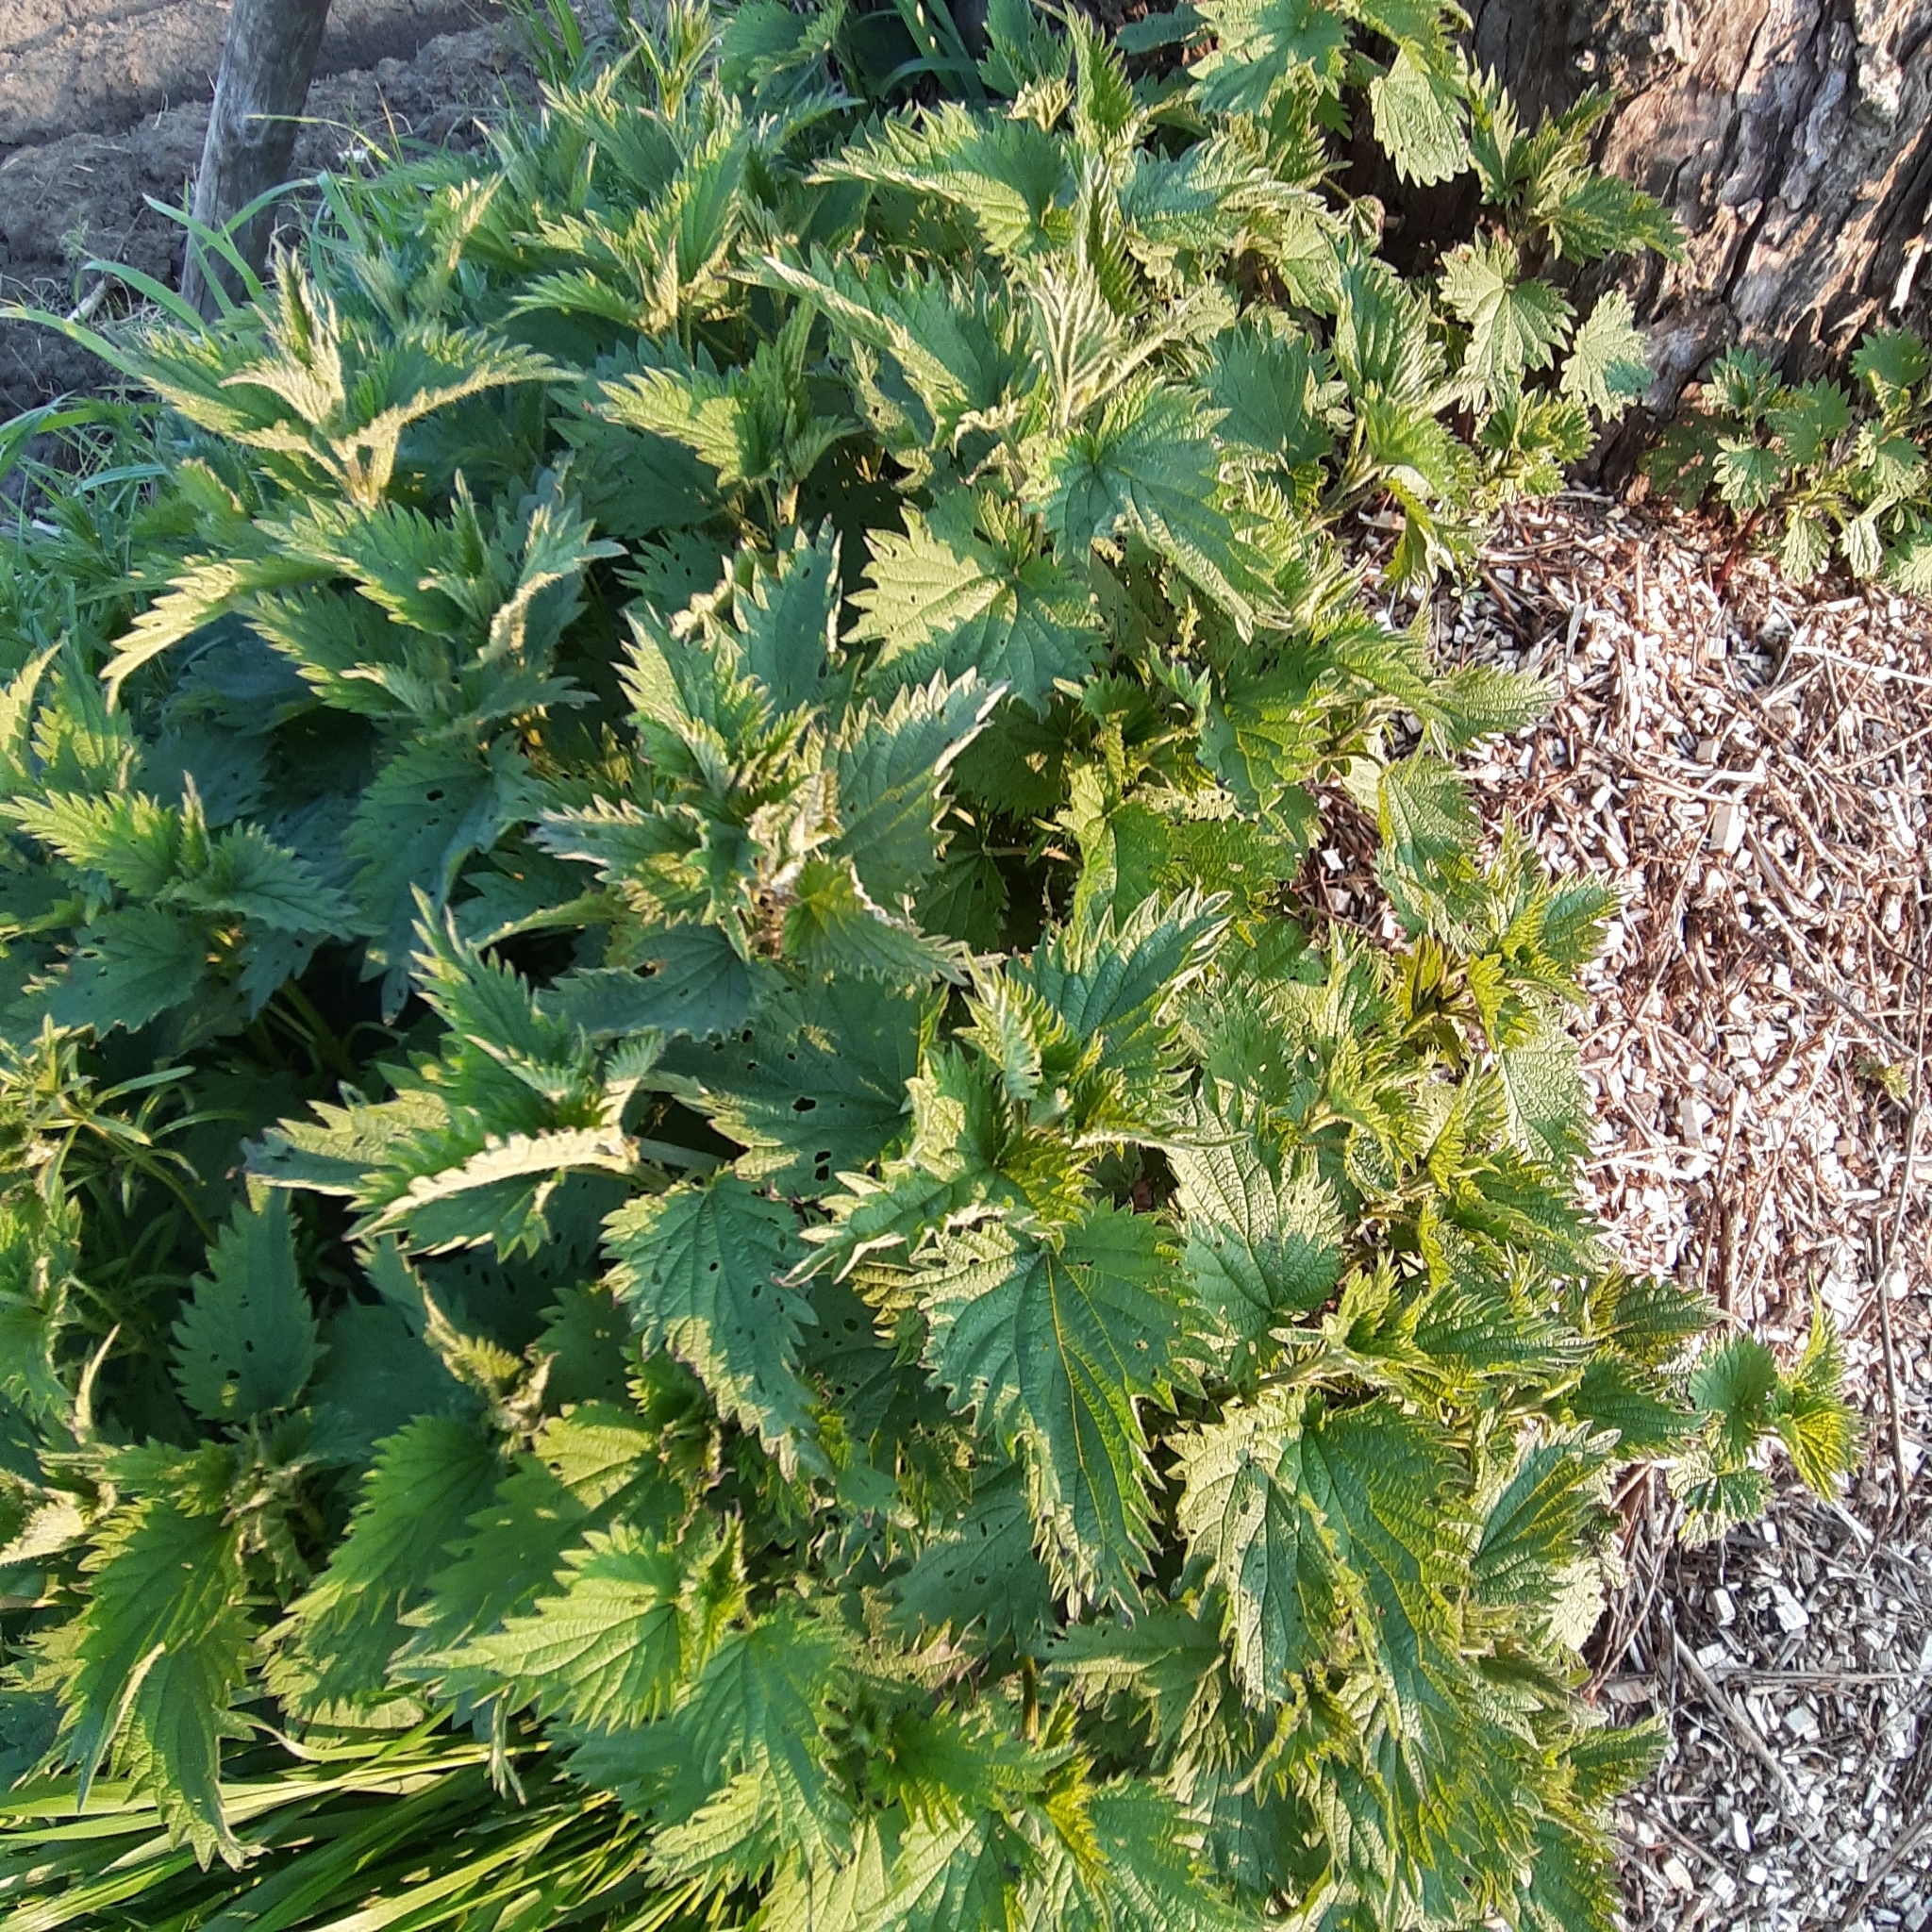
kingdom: Plantae
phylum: Tracheophyta
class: Magnoliopsida
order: Rosales
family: Urticaceae
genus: Urtica
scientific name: Urtica dioica
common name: Common nettle
